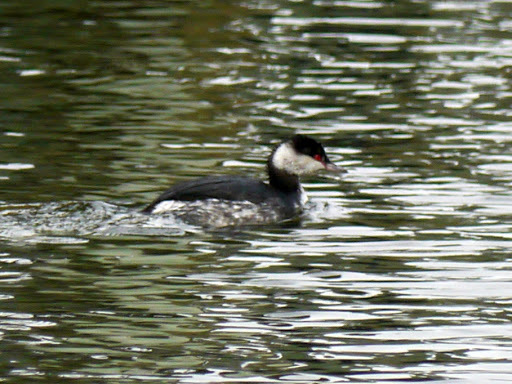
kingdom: Animalia
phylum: Chordata
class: Aves
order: Podicipediformes
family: Podicipedidae
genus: Podiceps
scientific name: Podiceps auritus
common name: Horned grebe
